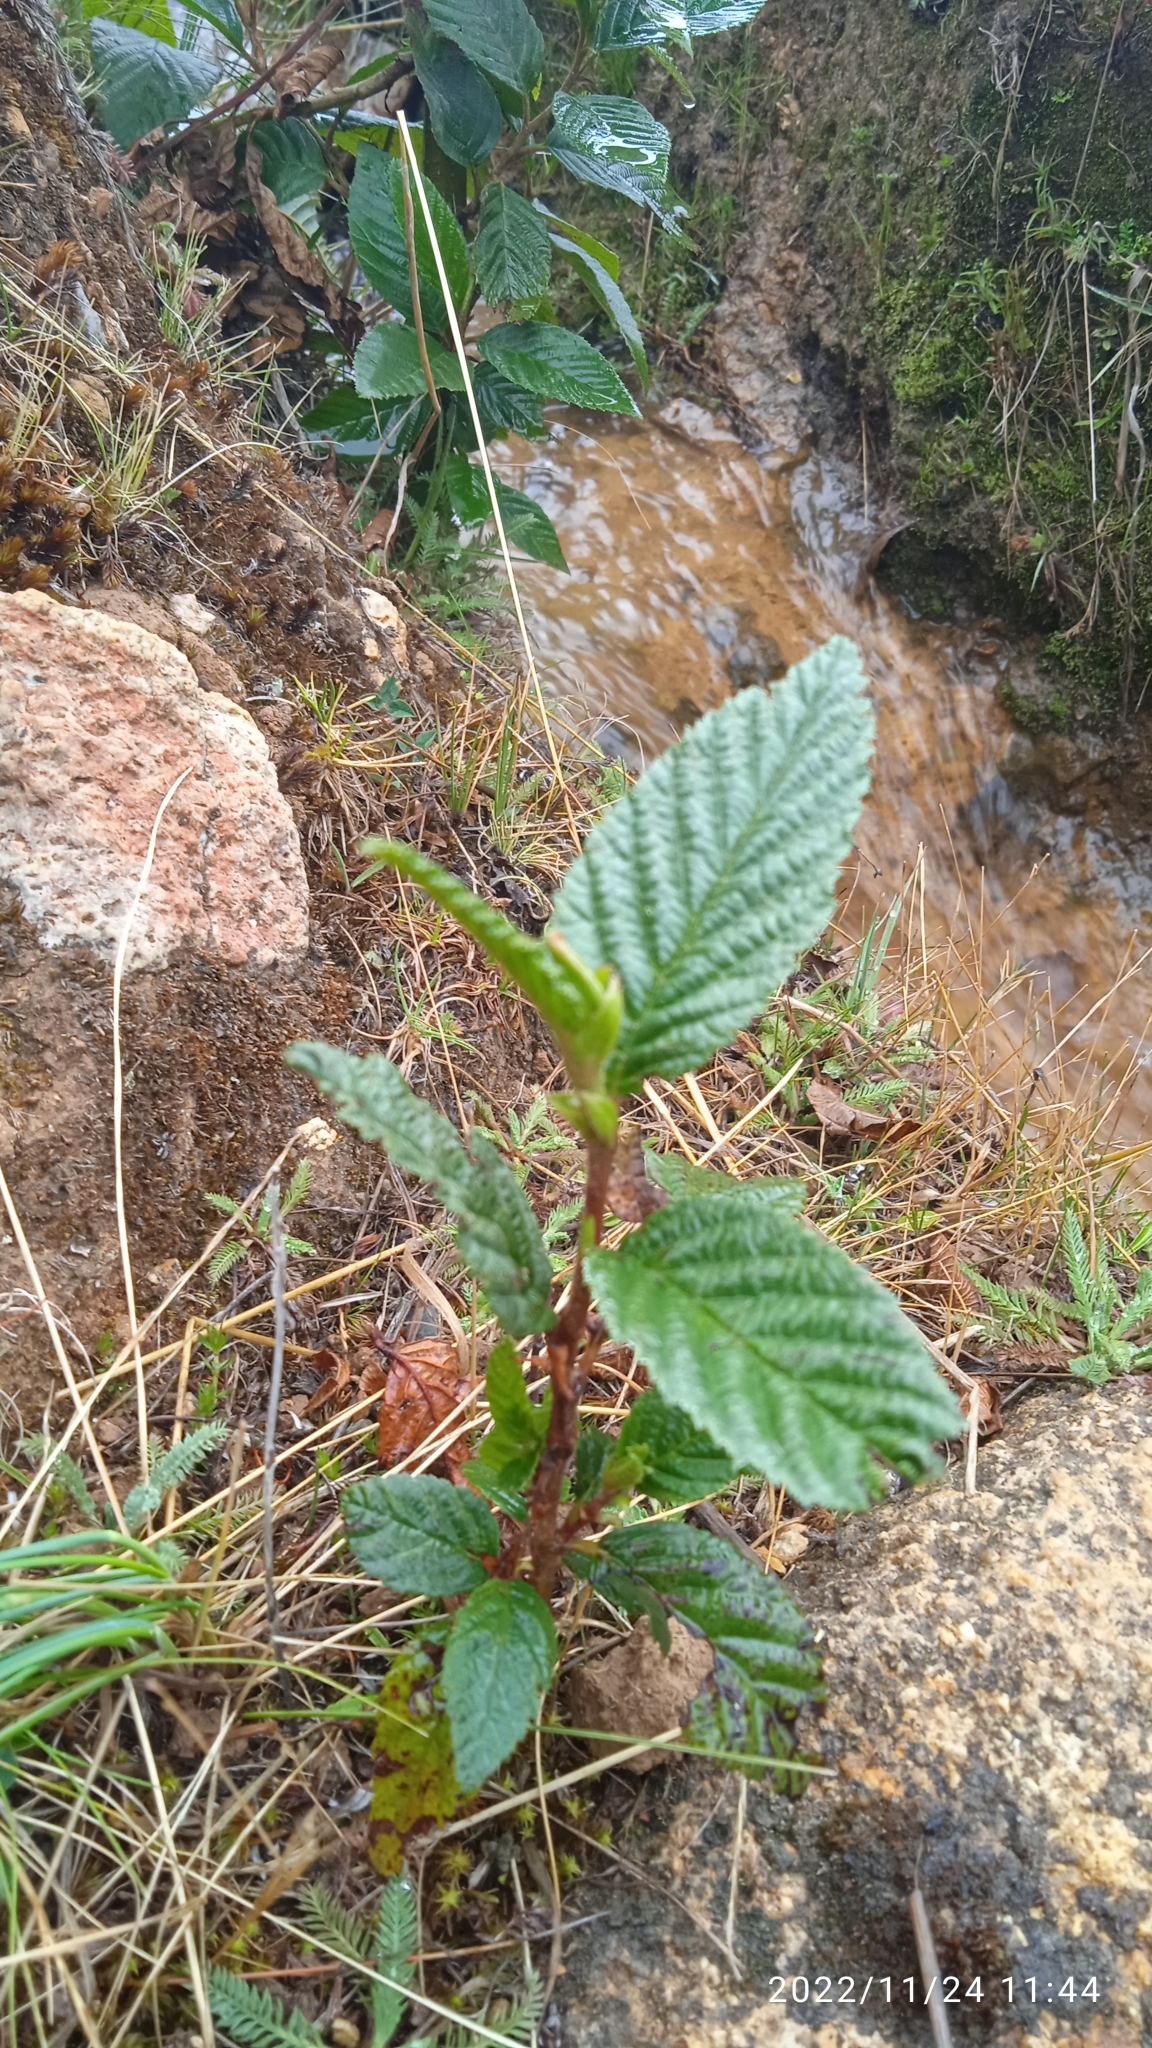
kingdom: Plantae
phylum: Tracheophyta
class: Magnoliopsida
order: Fagales
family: Betulaceae
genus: Alnus
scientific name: Alnus acuminata
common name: Alder
